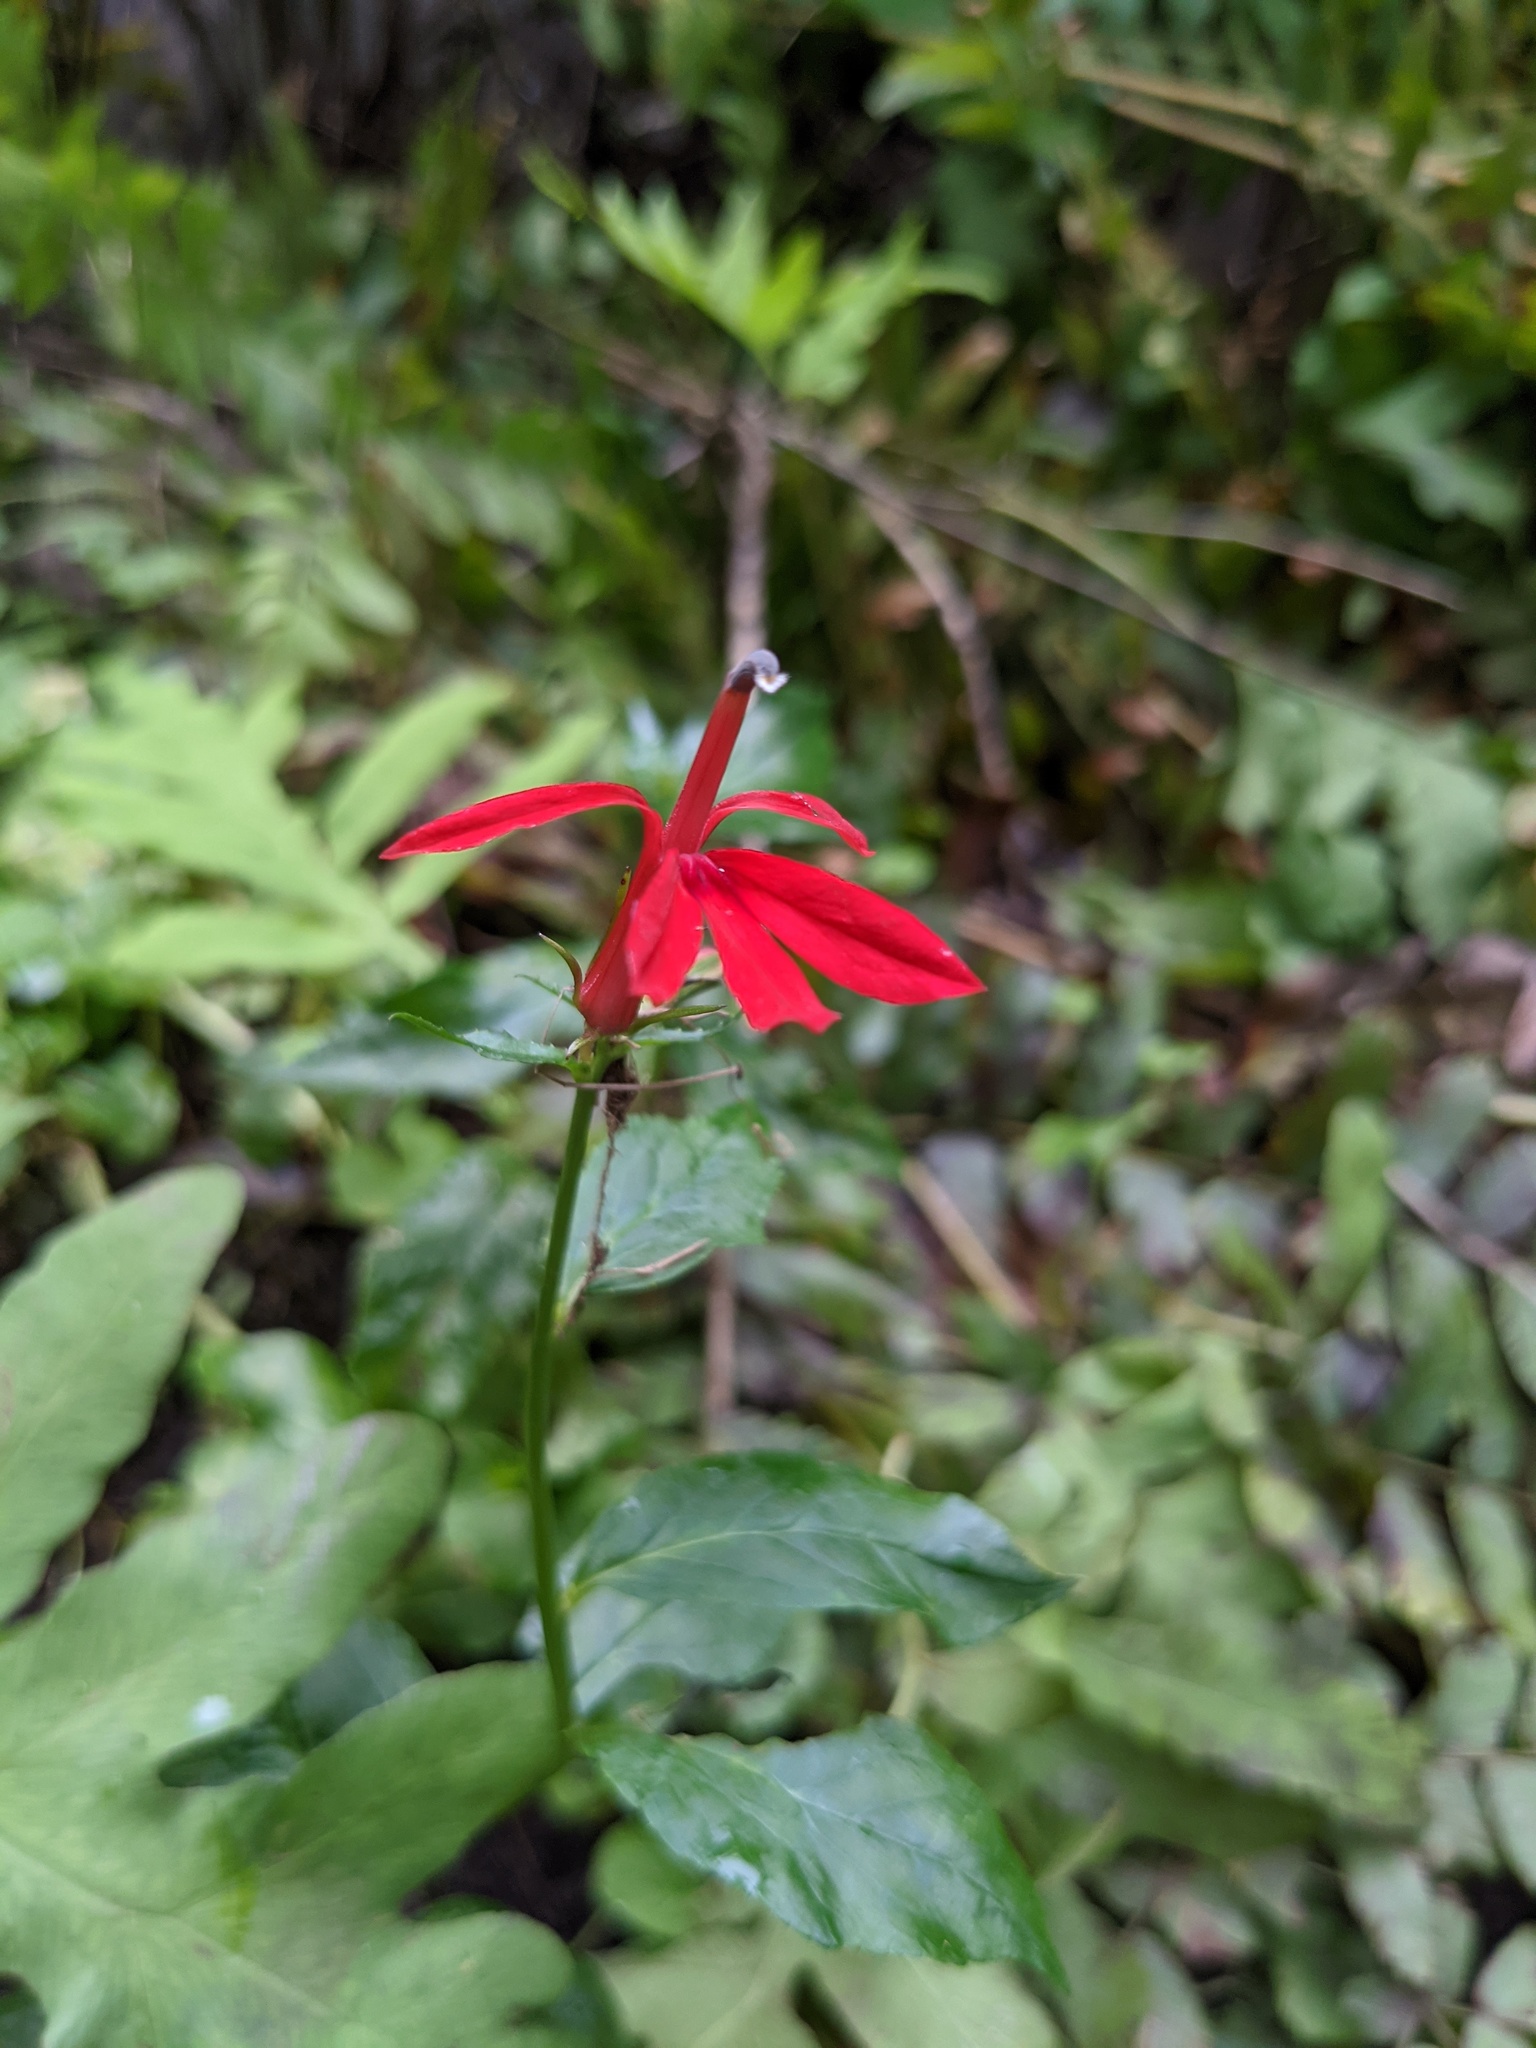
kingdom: Plantae
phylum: Tracheophyta
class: Magnoliopsida
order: Asterales
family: Campanulaceae
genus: Lobelia
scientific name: Lobelia cardinalis
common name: Cardinal flower
